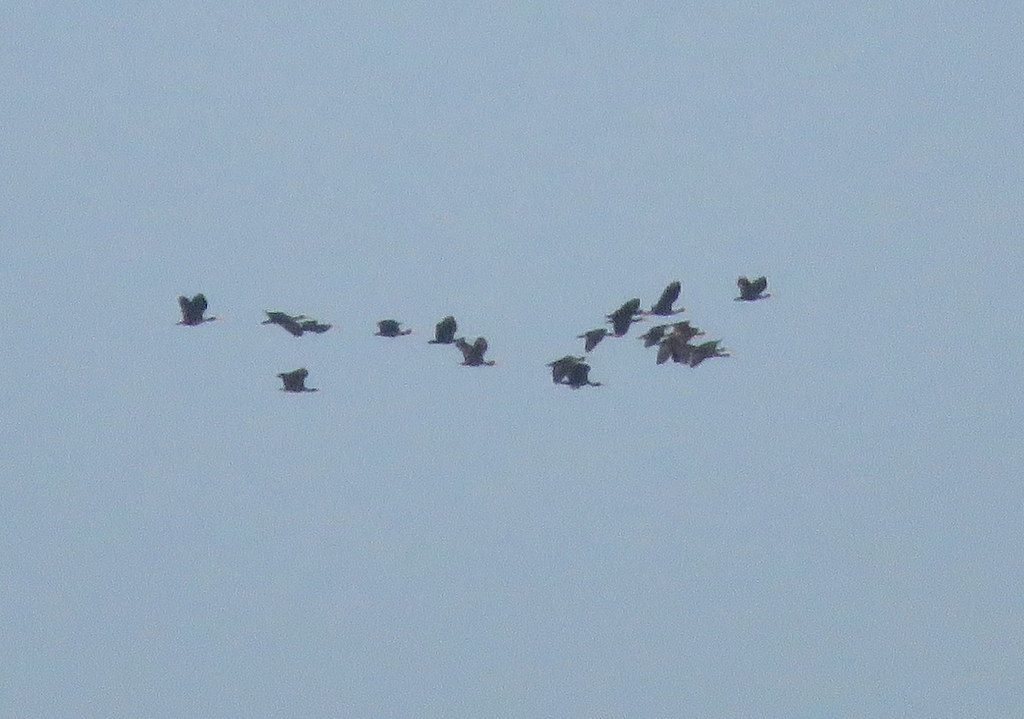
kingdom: Animalia
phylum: Chordata
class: Aves
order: Pelecaniformes
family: Threskiornithidae
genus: Phimosus
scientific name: Phimosus infuscatus
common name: Bare-faced ibis
